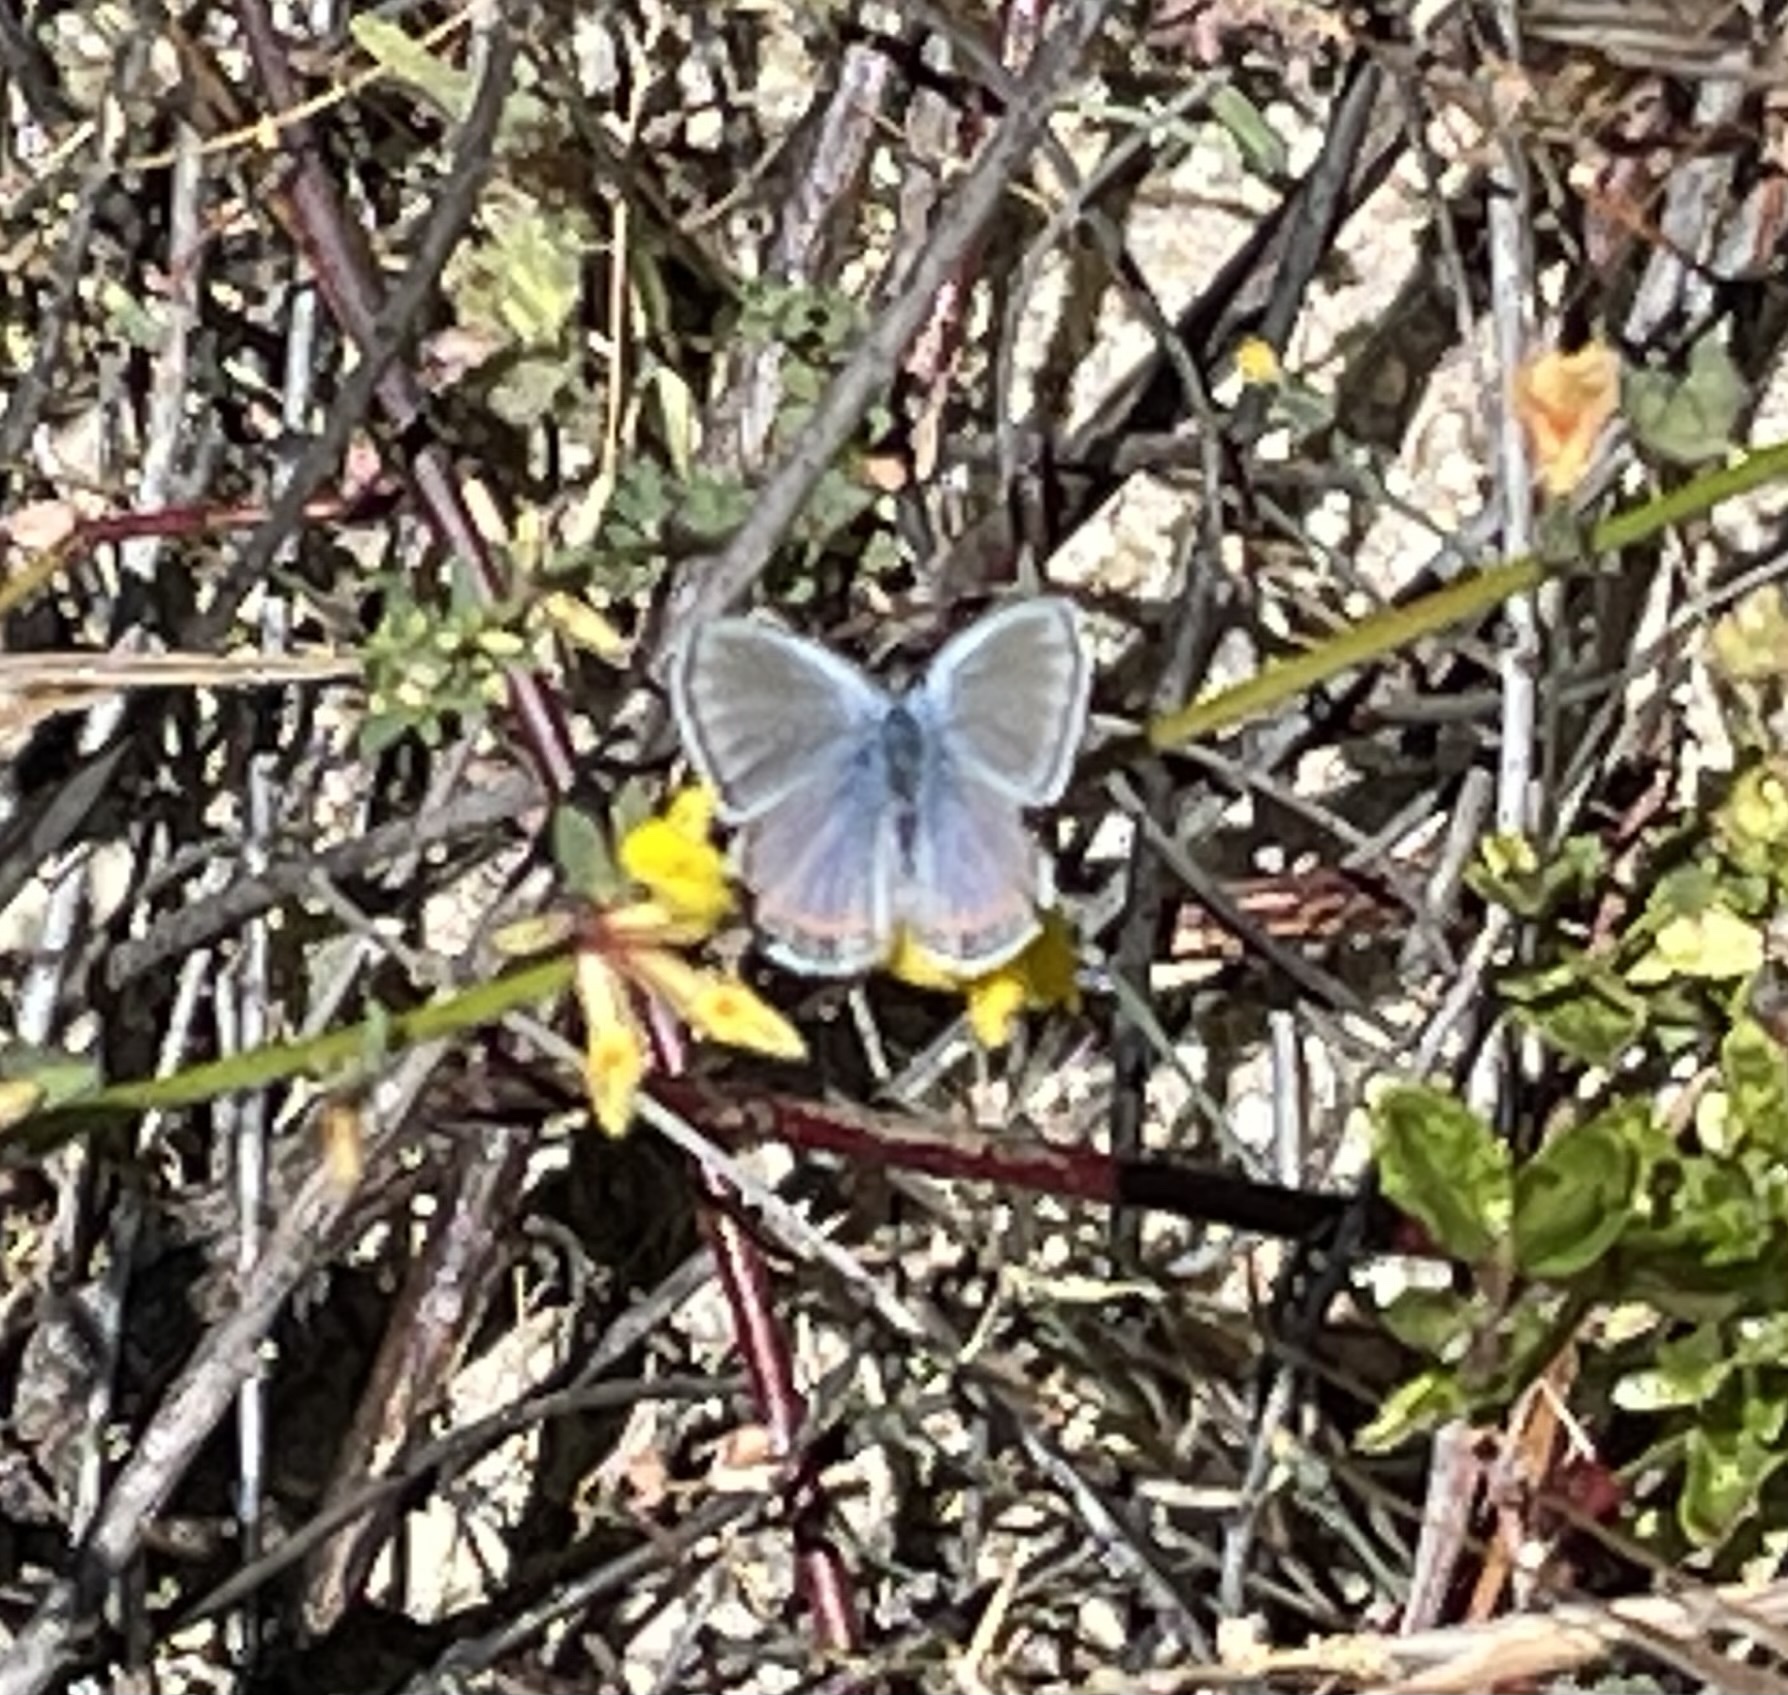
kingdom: Animalia
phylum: Arthropoda
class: Insecta
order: Lepidoptera
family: Lycaenidae
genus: Icaricia
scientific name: Icaricia acmon
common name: Acmon blue
